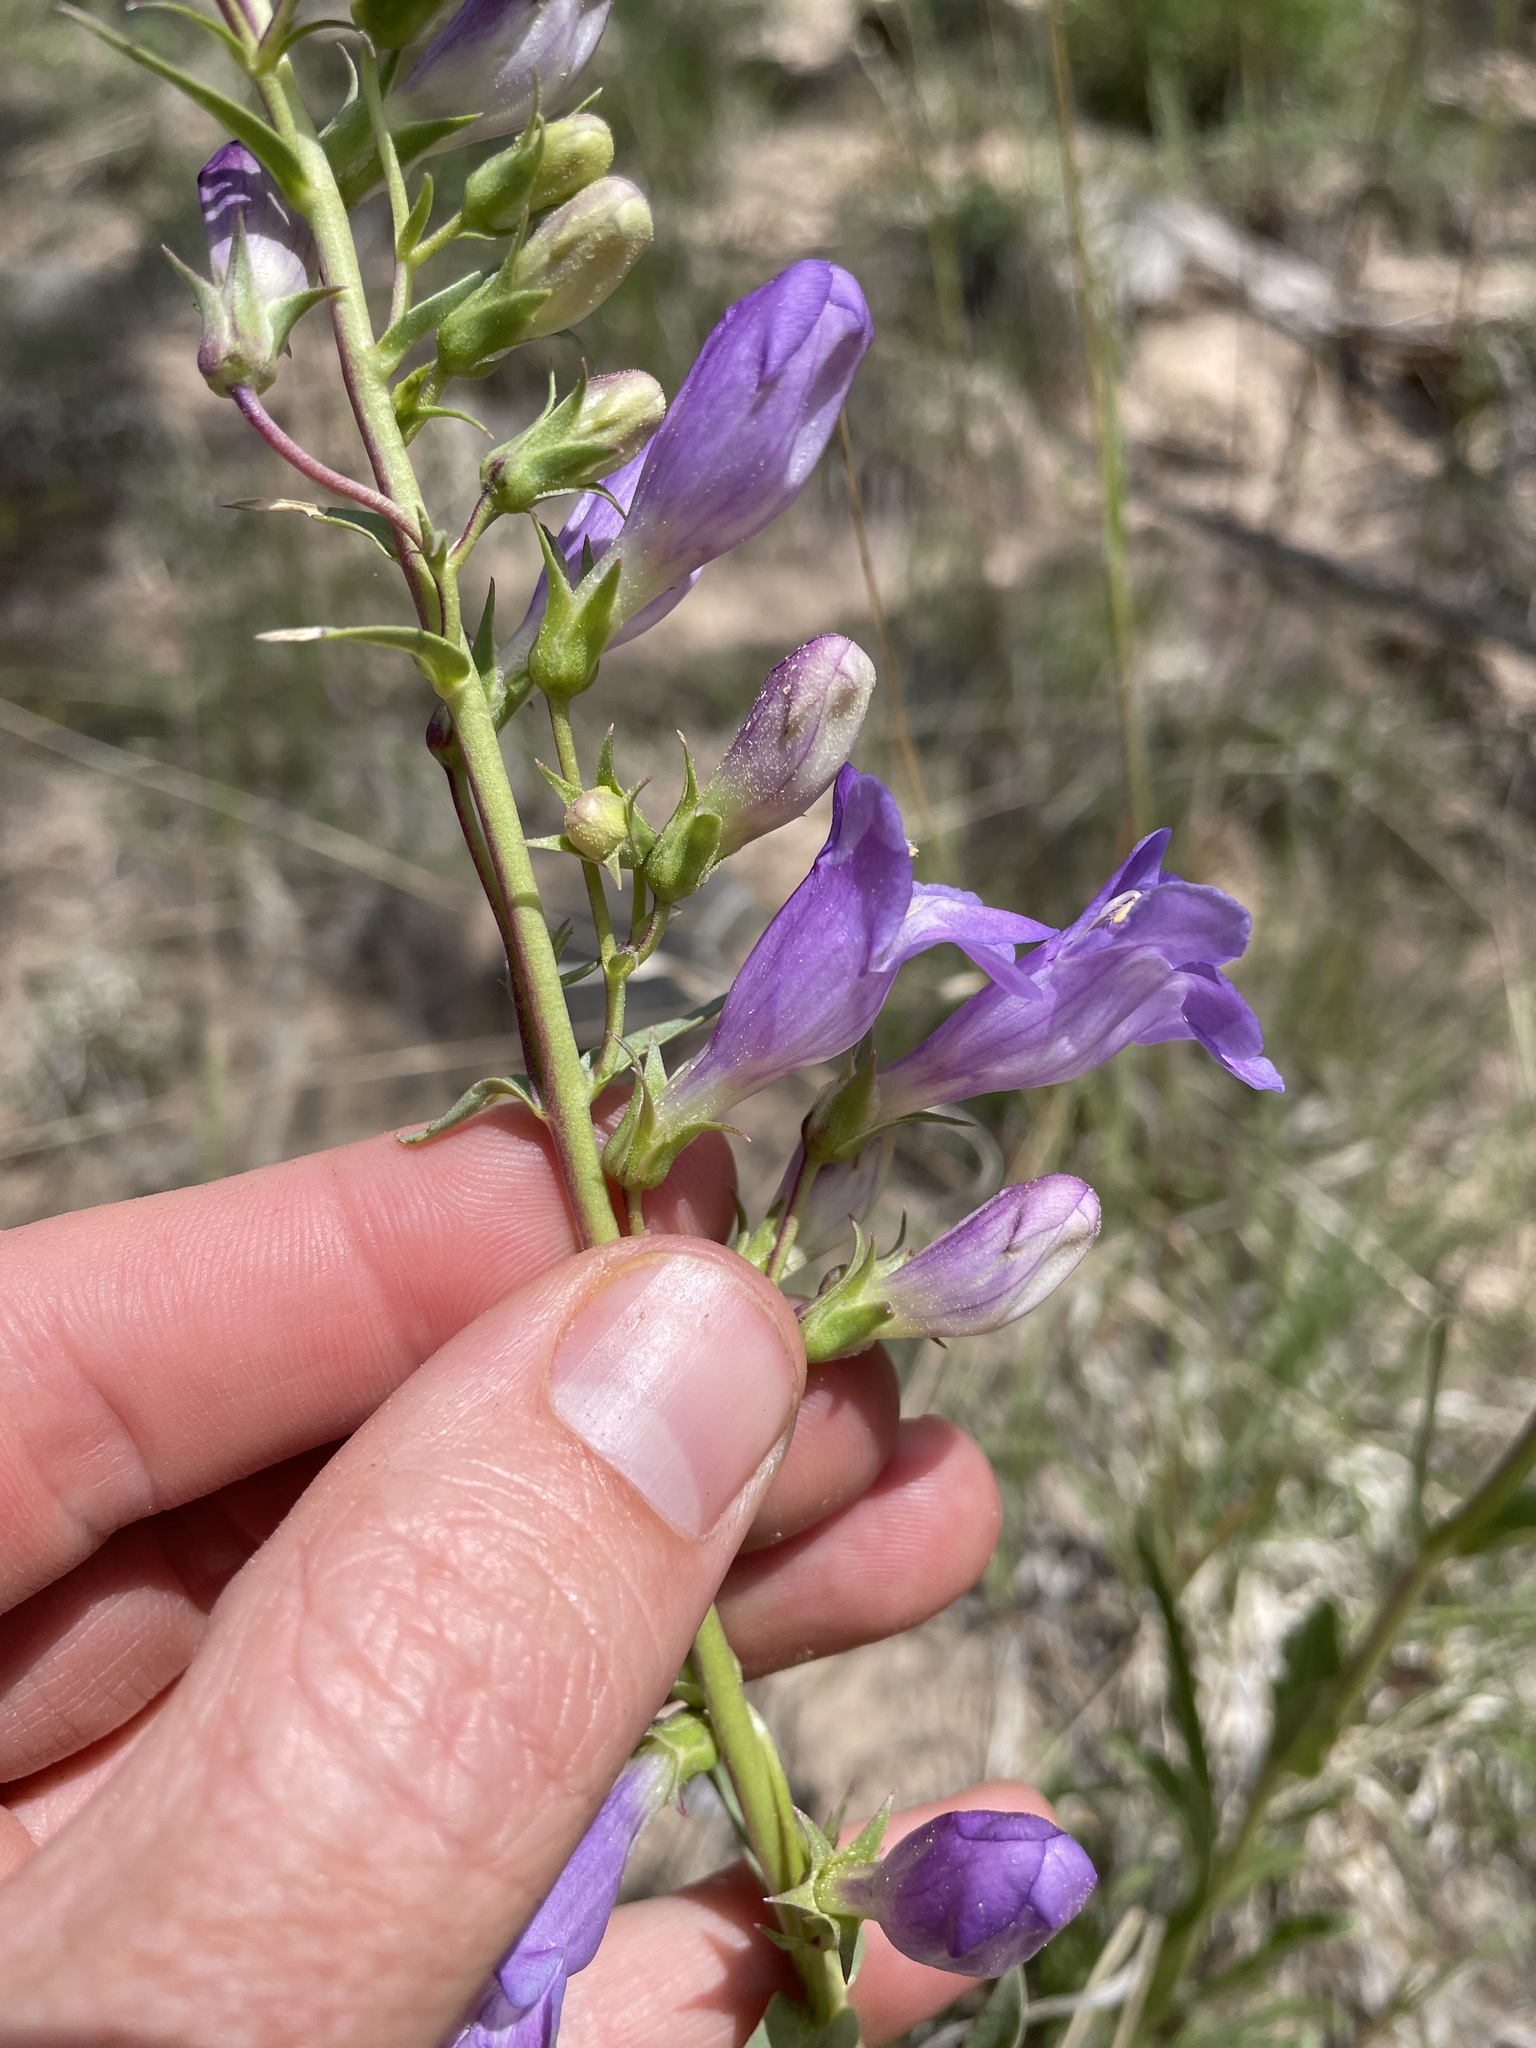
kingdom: Plantae
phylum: Tracheophyta
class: Magnoliopsida
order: Lamiales
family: Plantaginaceae
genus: Penstemon
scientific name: Penstemon strictiformis
